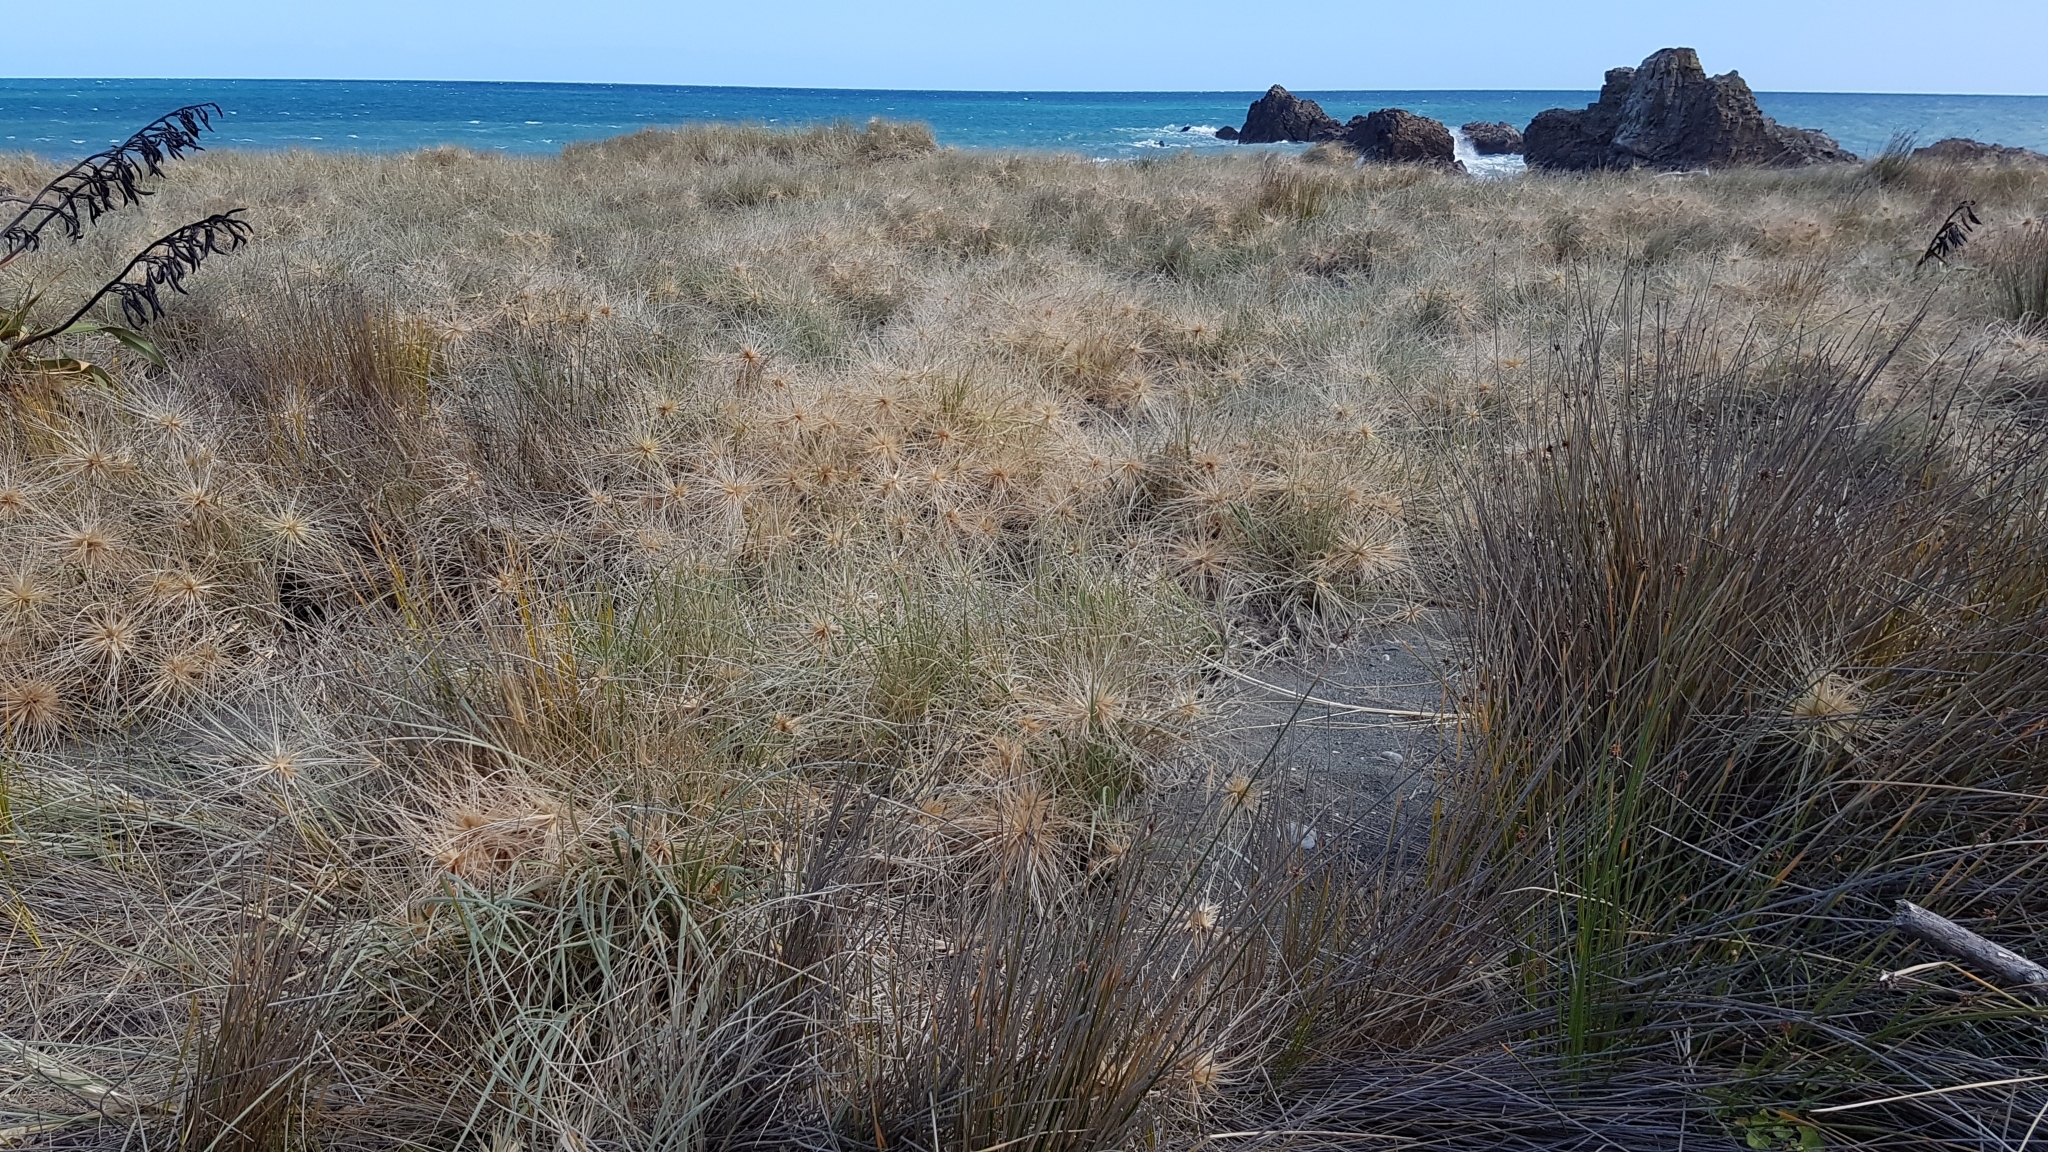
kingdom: Plantae
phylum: Tracheophyta
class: Liliopsida
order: Poales
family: Poaceae
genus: Spinifex
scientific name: Spinifex sericeus
